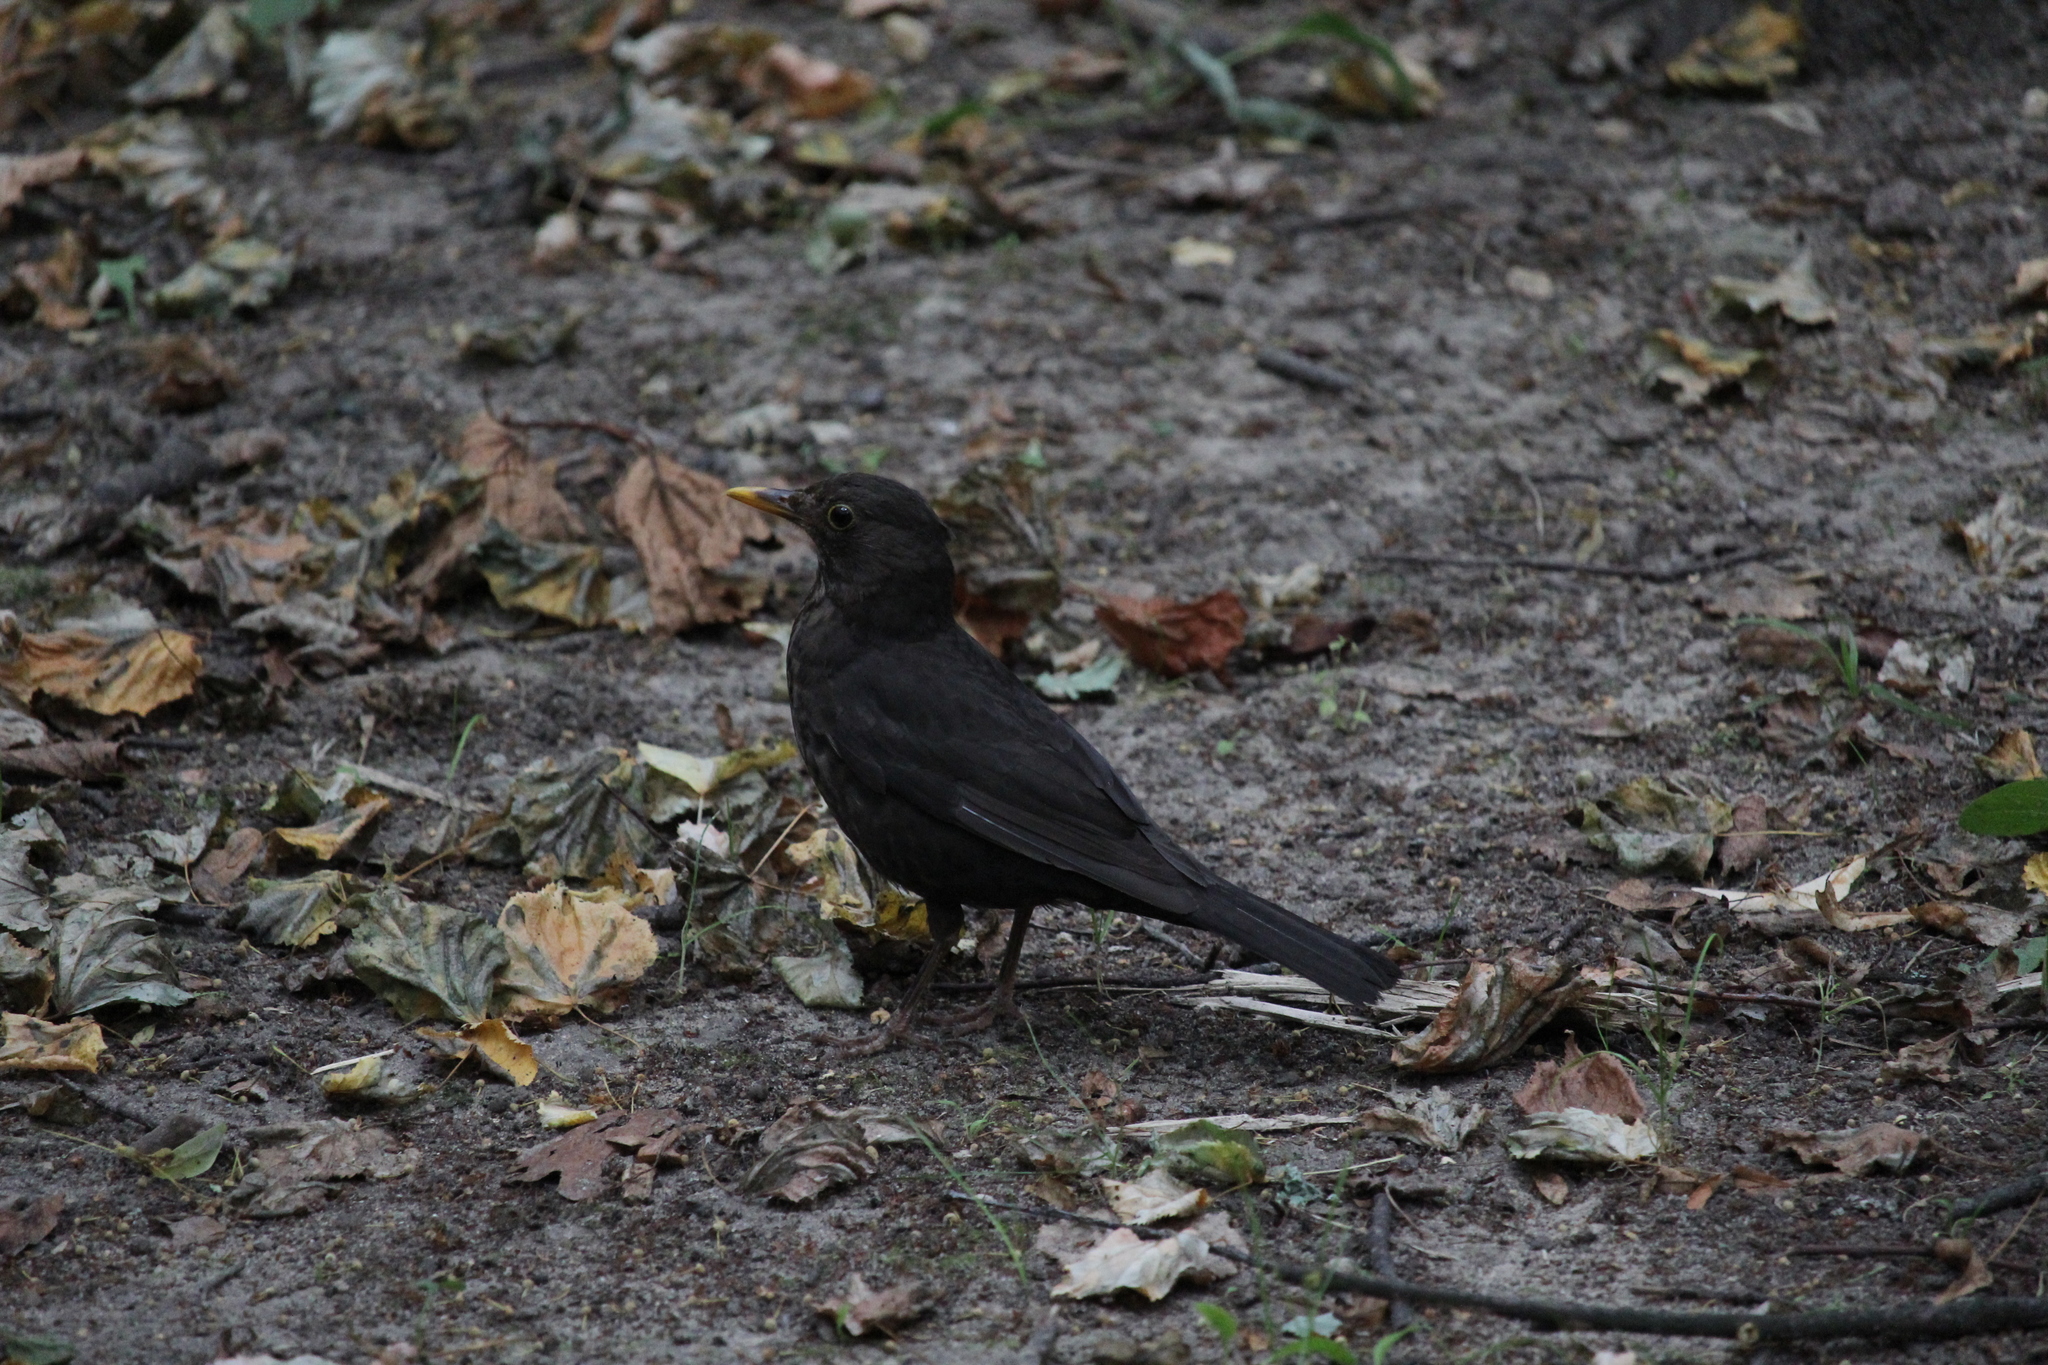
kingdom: Animalia
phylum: Chordata
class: Aves
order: Passeriformes
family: Turdidae
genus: Turdus
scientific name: Turdus merula
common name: Common blackbird
